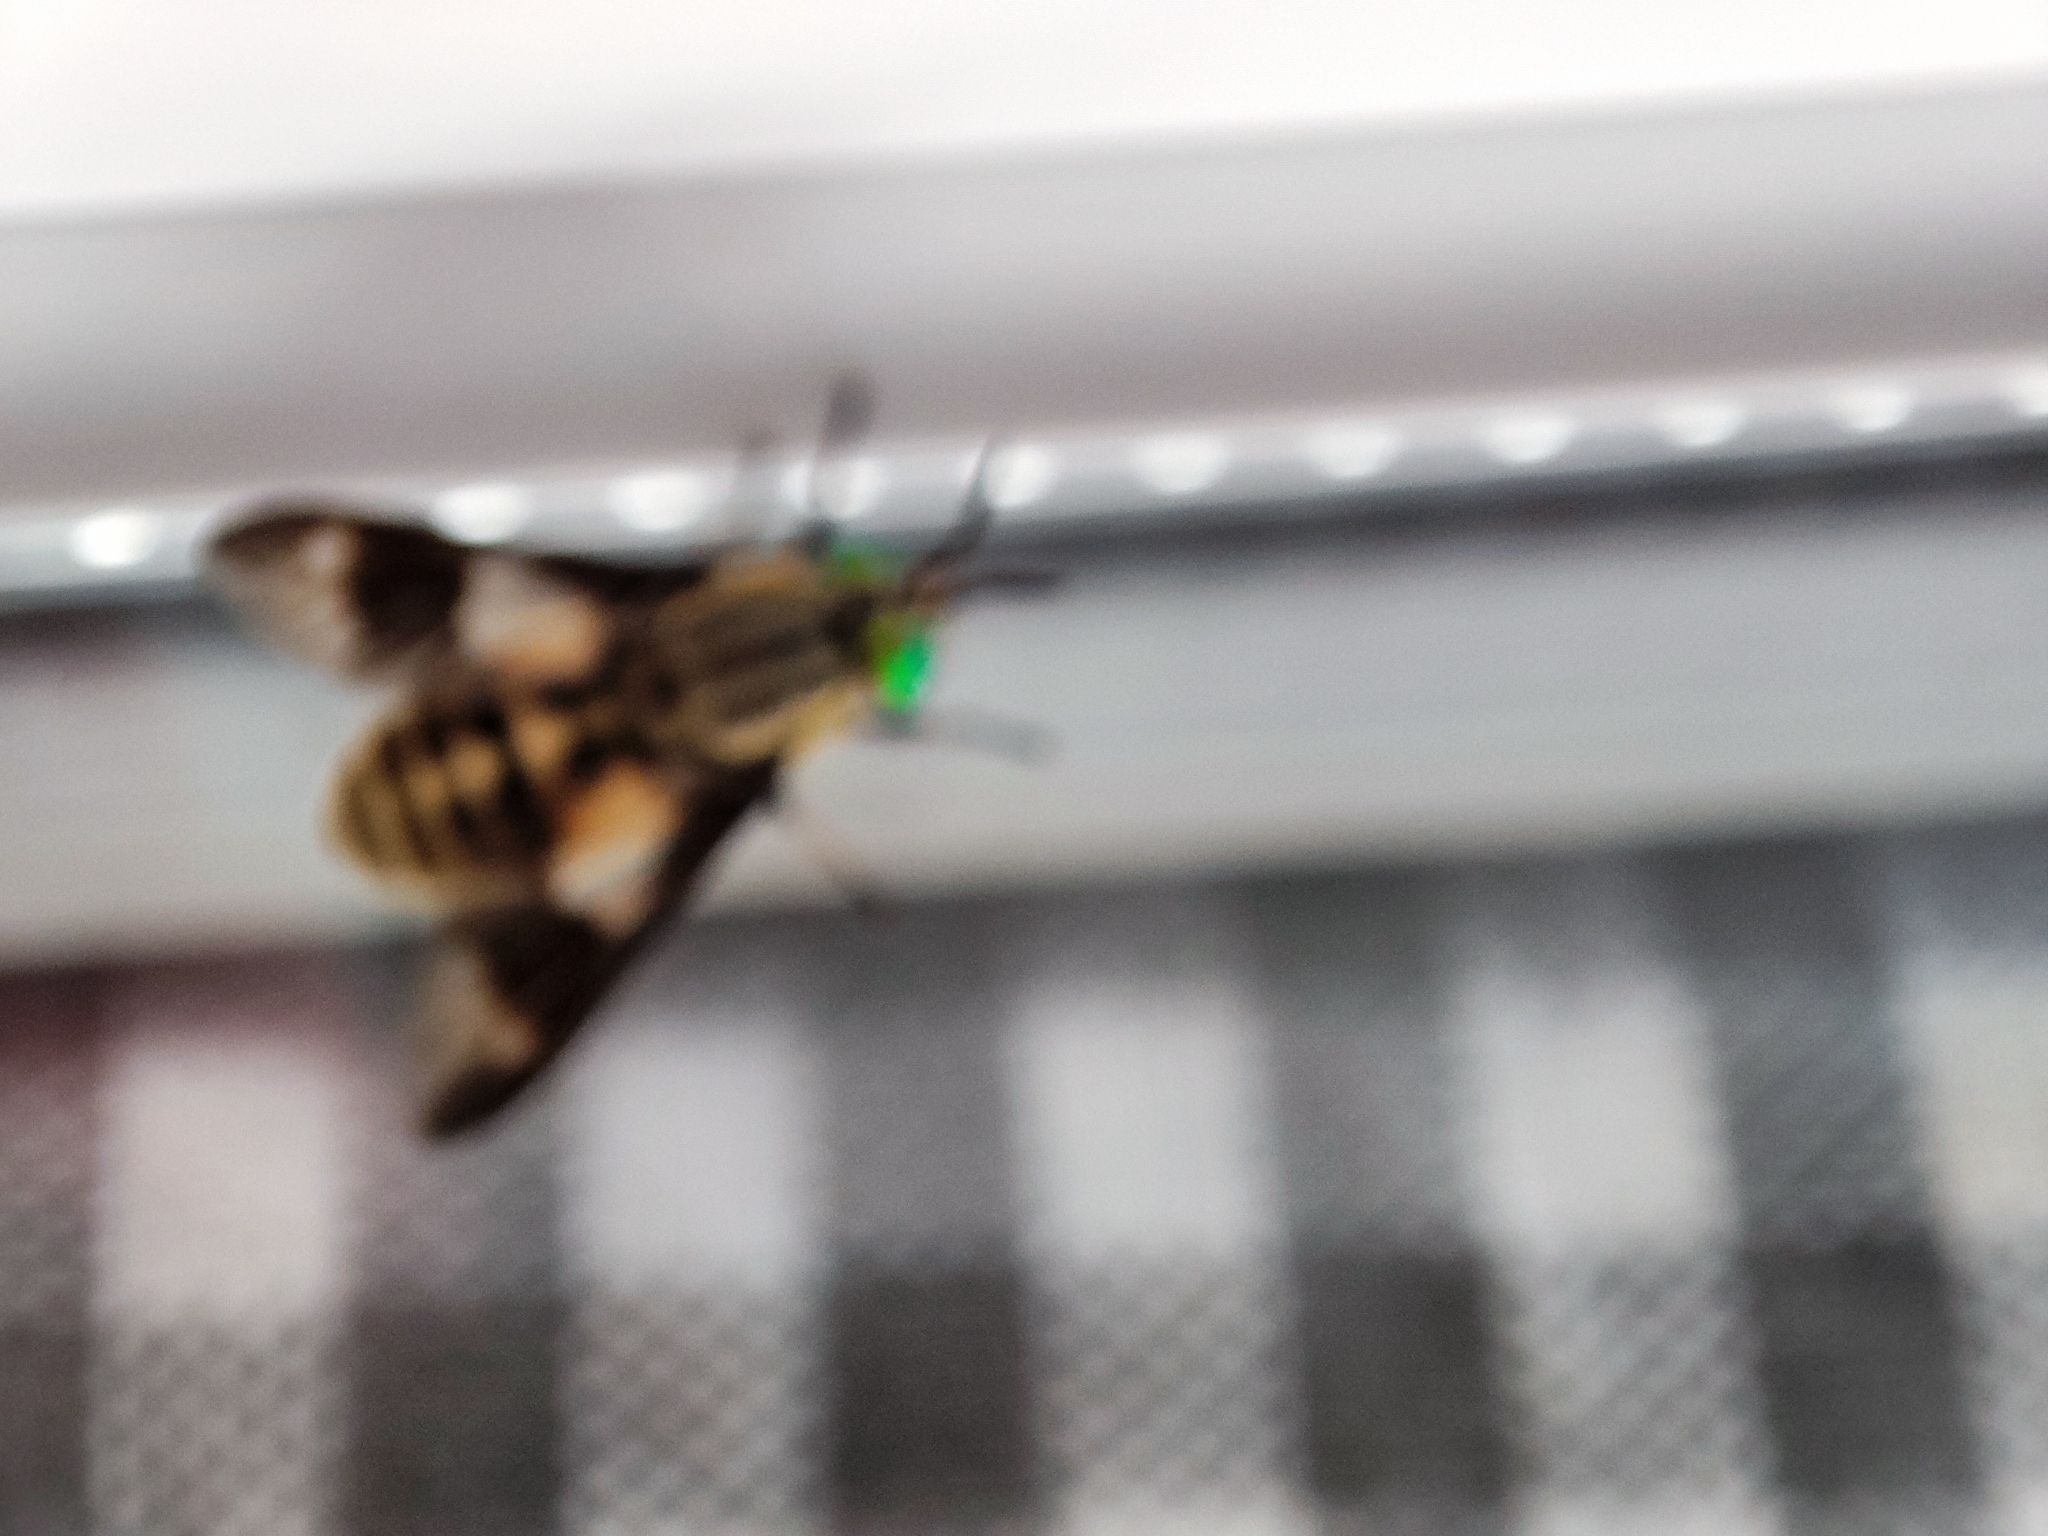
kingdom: Animalia
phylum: Arthropoda
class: Insecta
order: Diptera
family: Tabanidae
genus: Chrysops
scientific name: Chrysops relictus
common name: Twin-lobed deerfly
